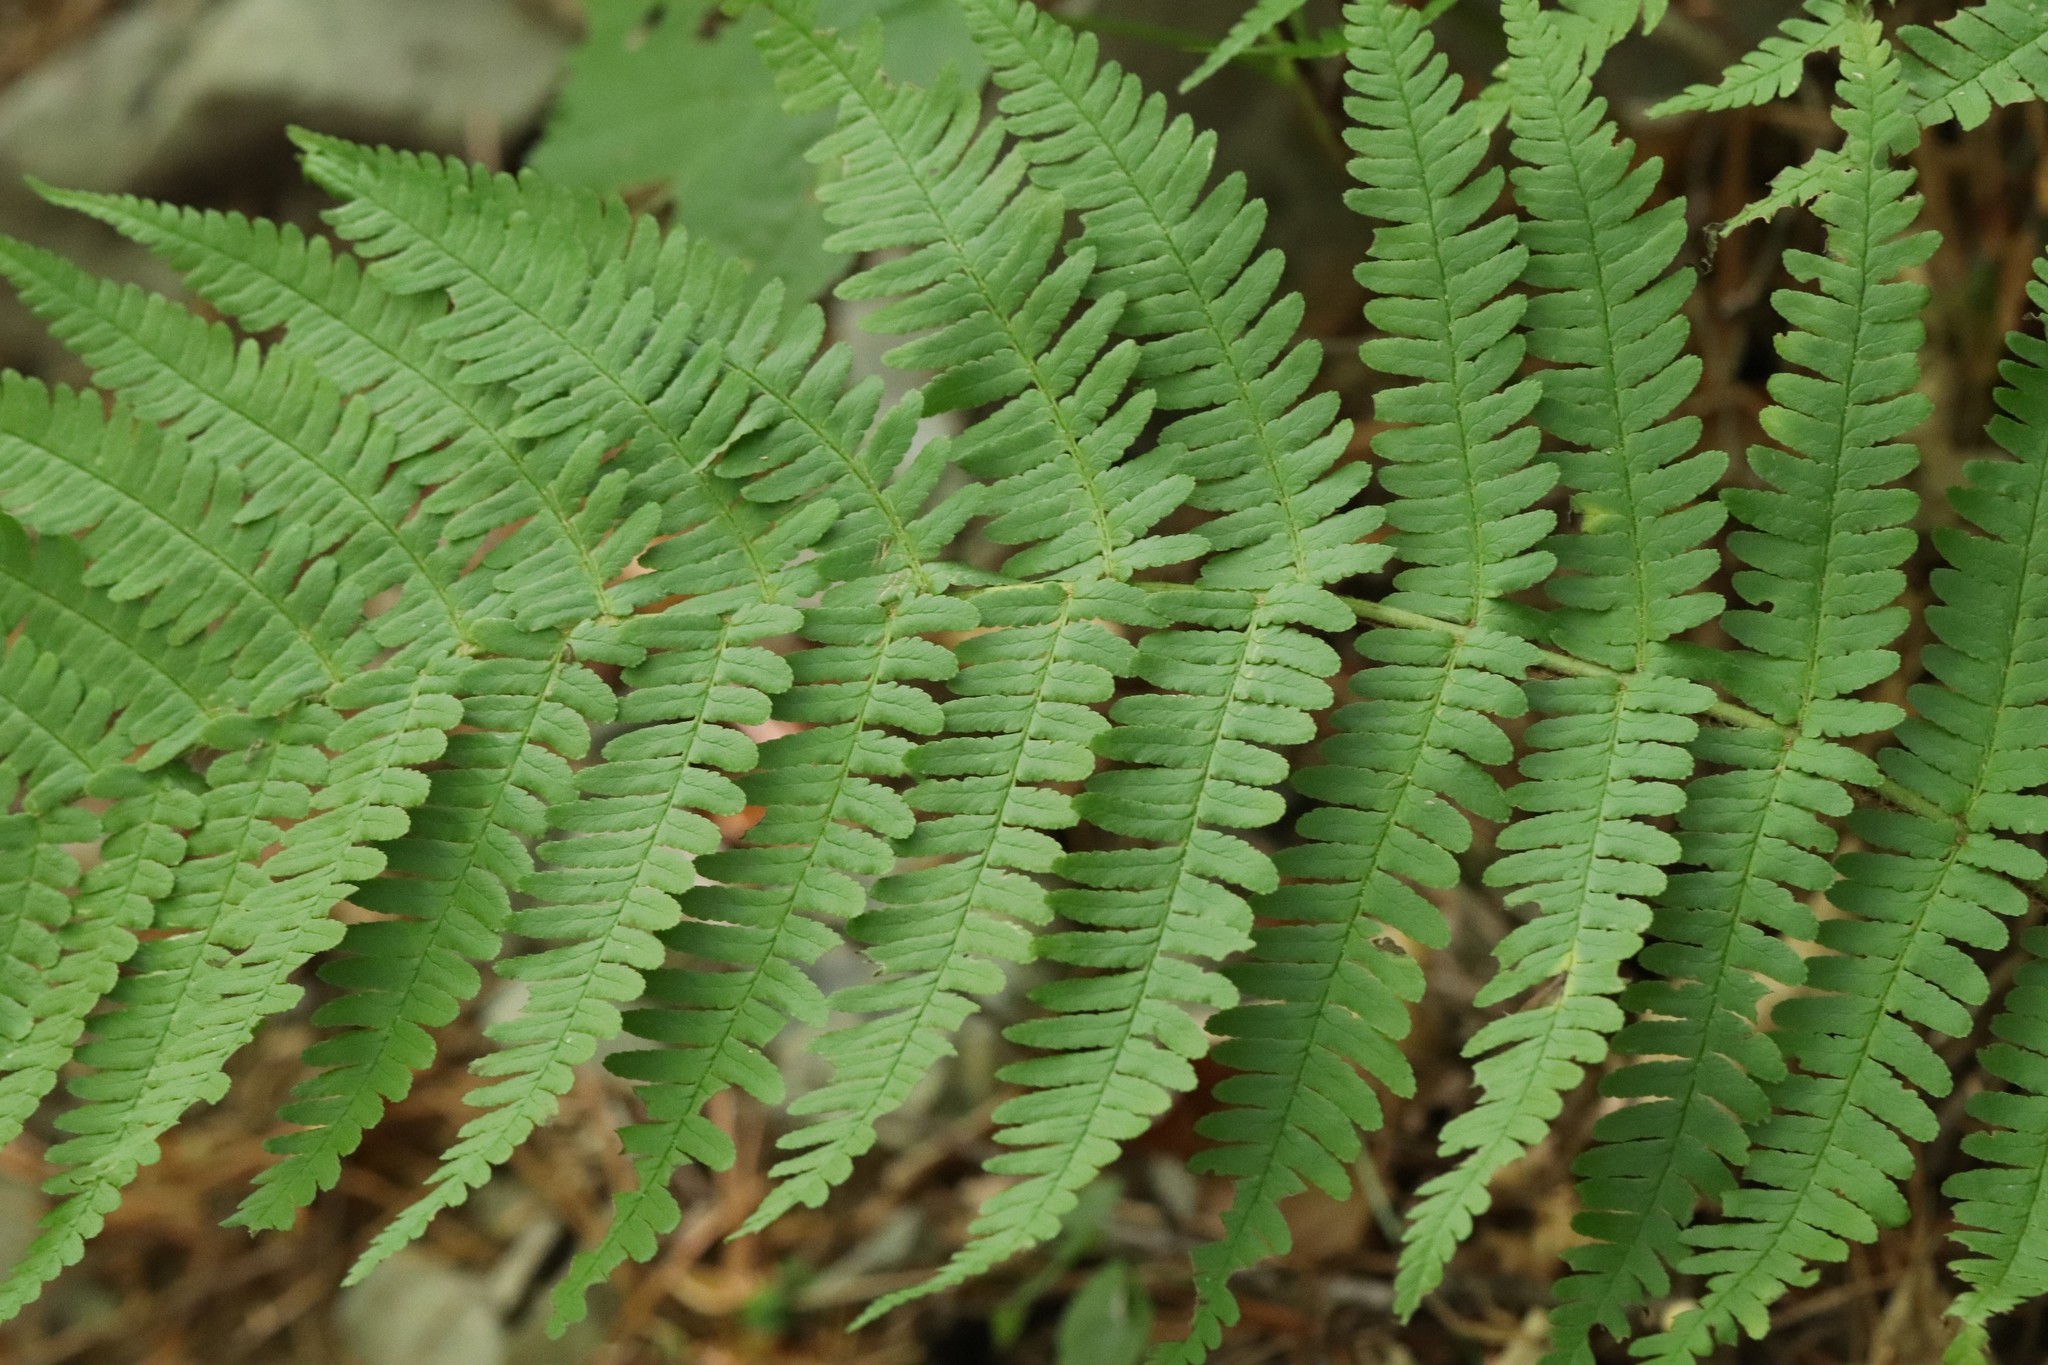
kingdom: Plantae
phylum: Tracheophyta
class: Polypodiopsida
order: Polypodiales
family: Dryopteridaceae
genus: Dryopteris
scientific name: Dryopteris crassirhizoma
